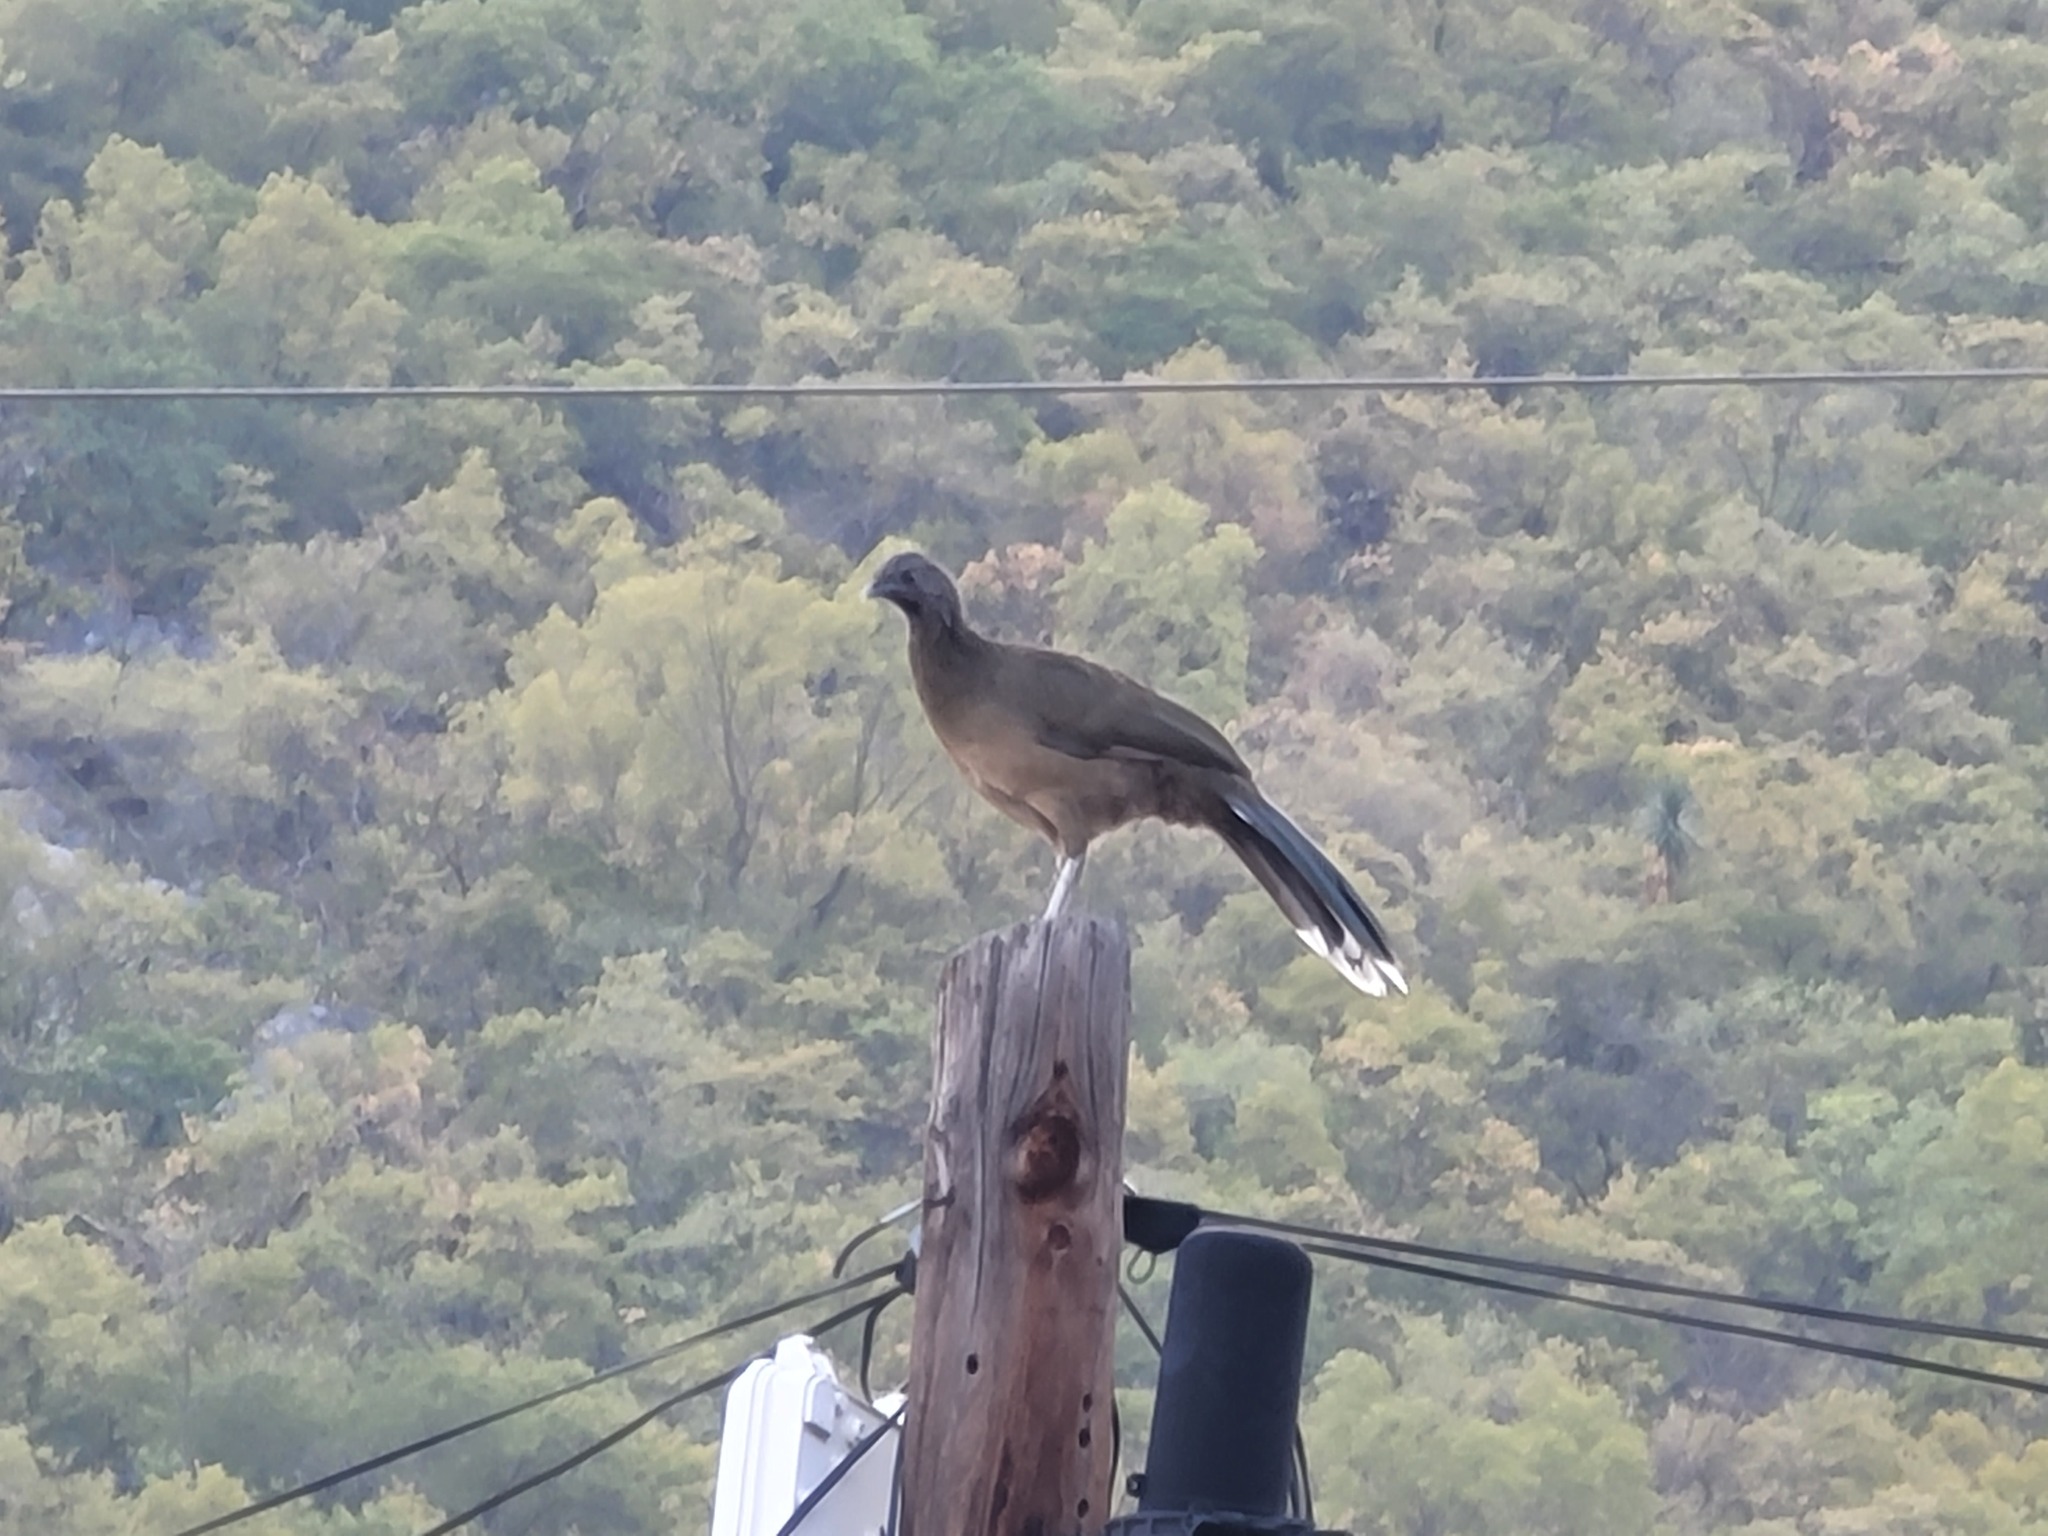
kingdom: Animalia
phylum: Chordata
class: Aves
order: Galliformes
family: Cracidae
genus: Ortalis
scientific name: Ortalis vetula
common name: Plain chachalaca
